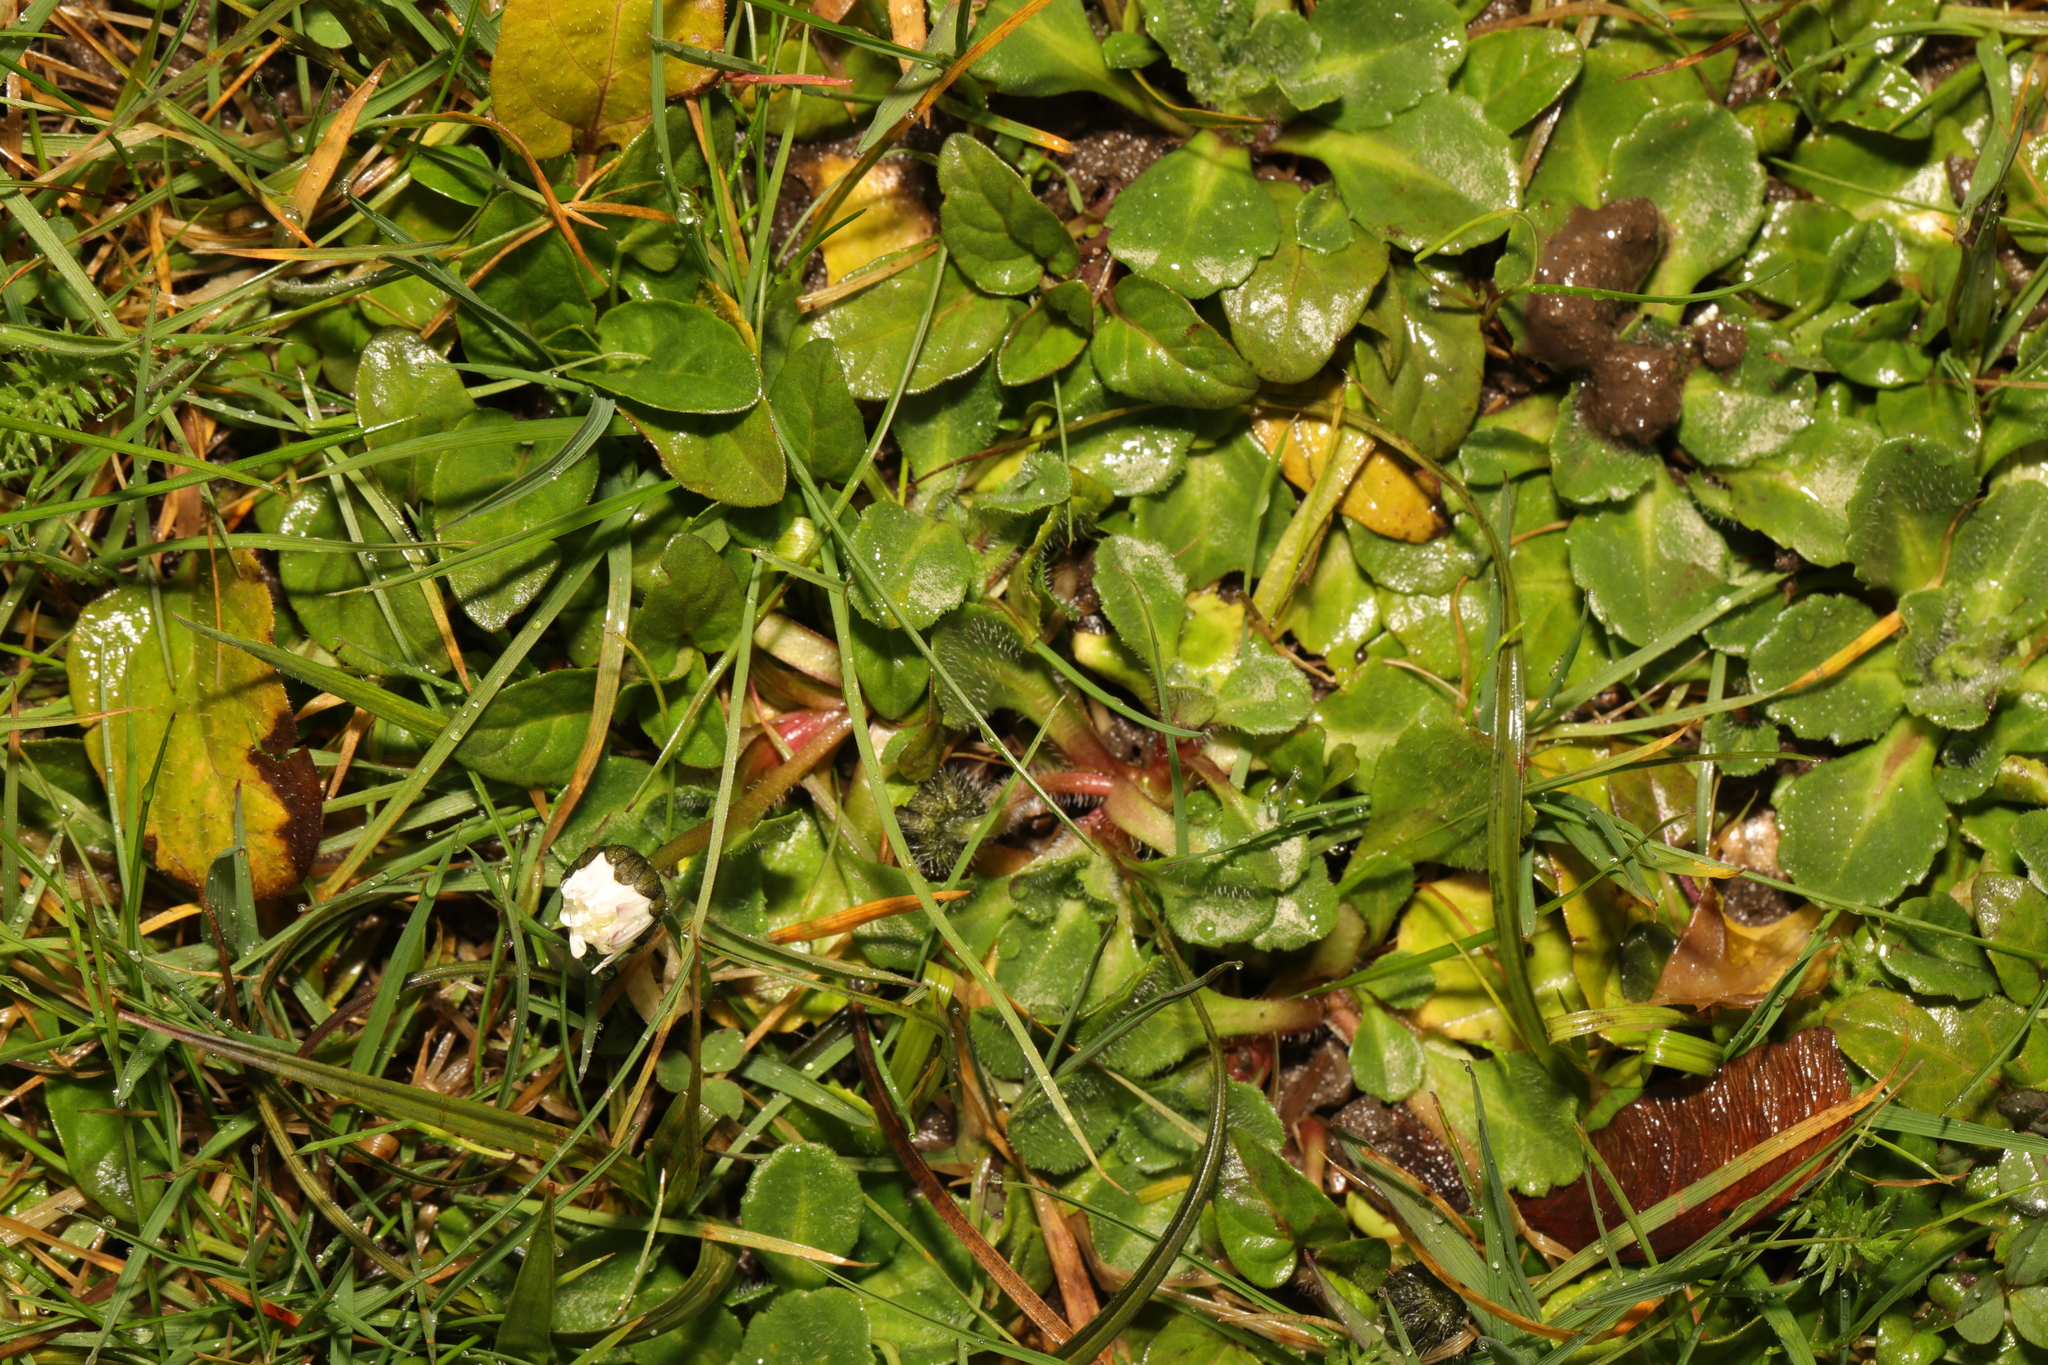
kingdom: Plantae
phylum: Tracheophyta
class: Magnoliopsida
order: Asterales
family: Asteraceae
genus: Bellis
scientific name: Bellis perennis
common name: Lawndaisy
